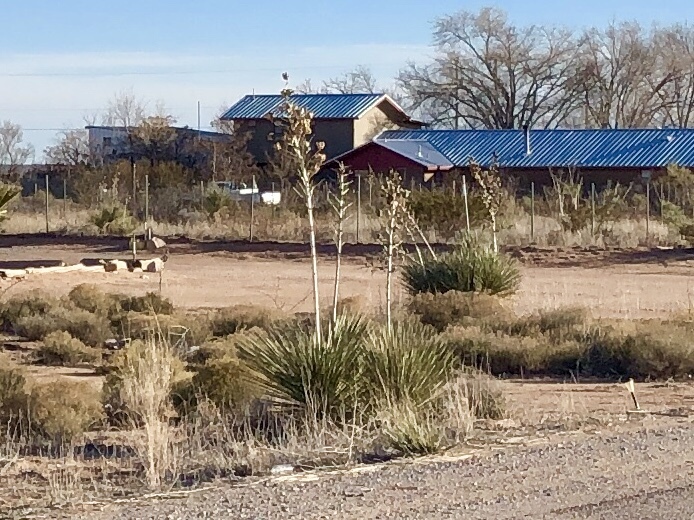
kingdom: Plantae
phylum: Tracheophyta
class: Liliopsida
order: Asparagales
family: Asparagaceae
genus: Yucca
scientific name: Yucca elata
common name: Palmella
